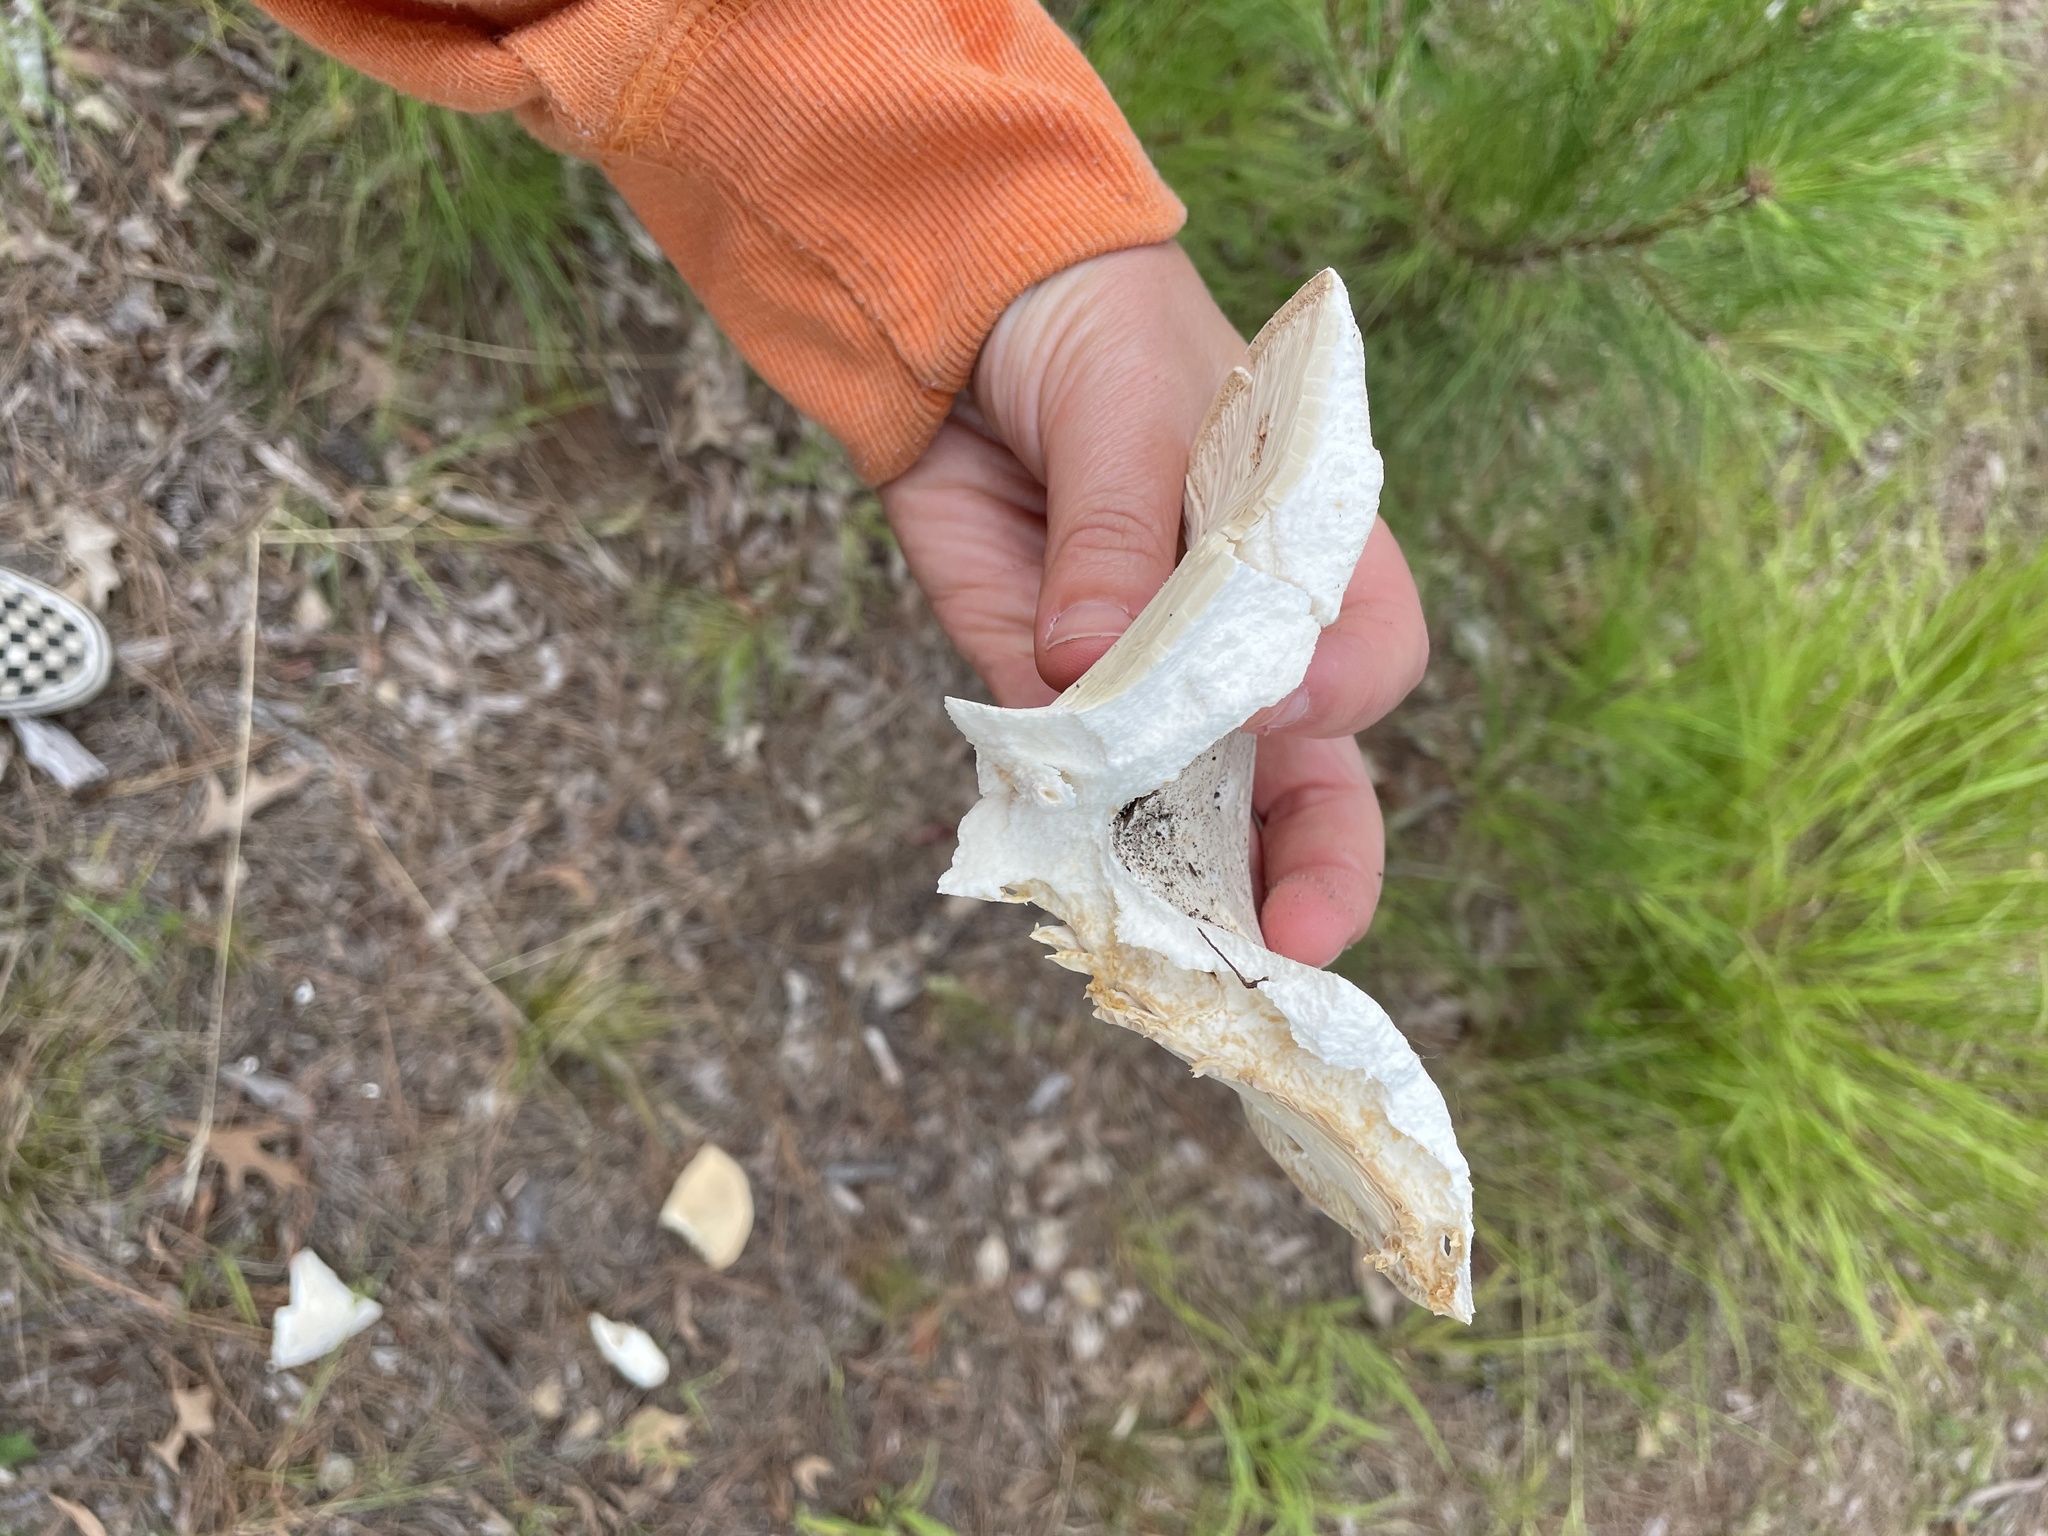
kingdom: Fungi
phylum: Basidiomycota
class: Agaricomycetes
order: Russulales
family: Russulaceae
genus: Russula
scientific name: Russula vesicatoria
